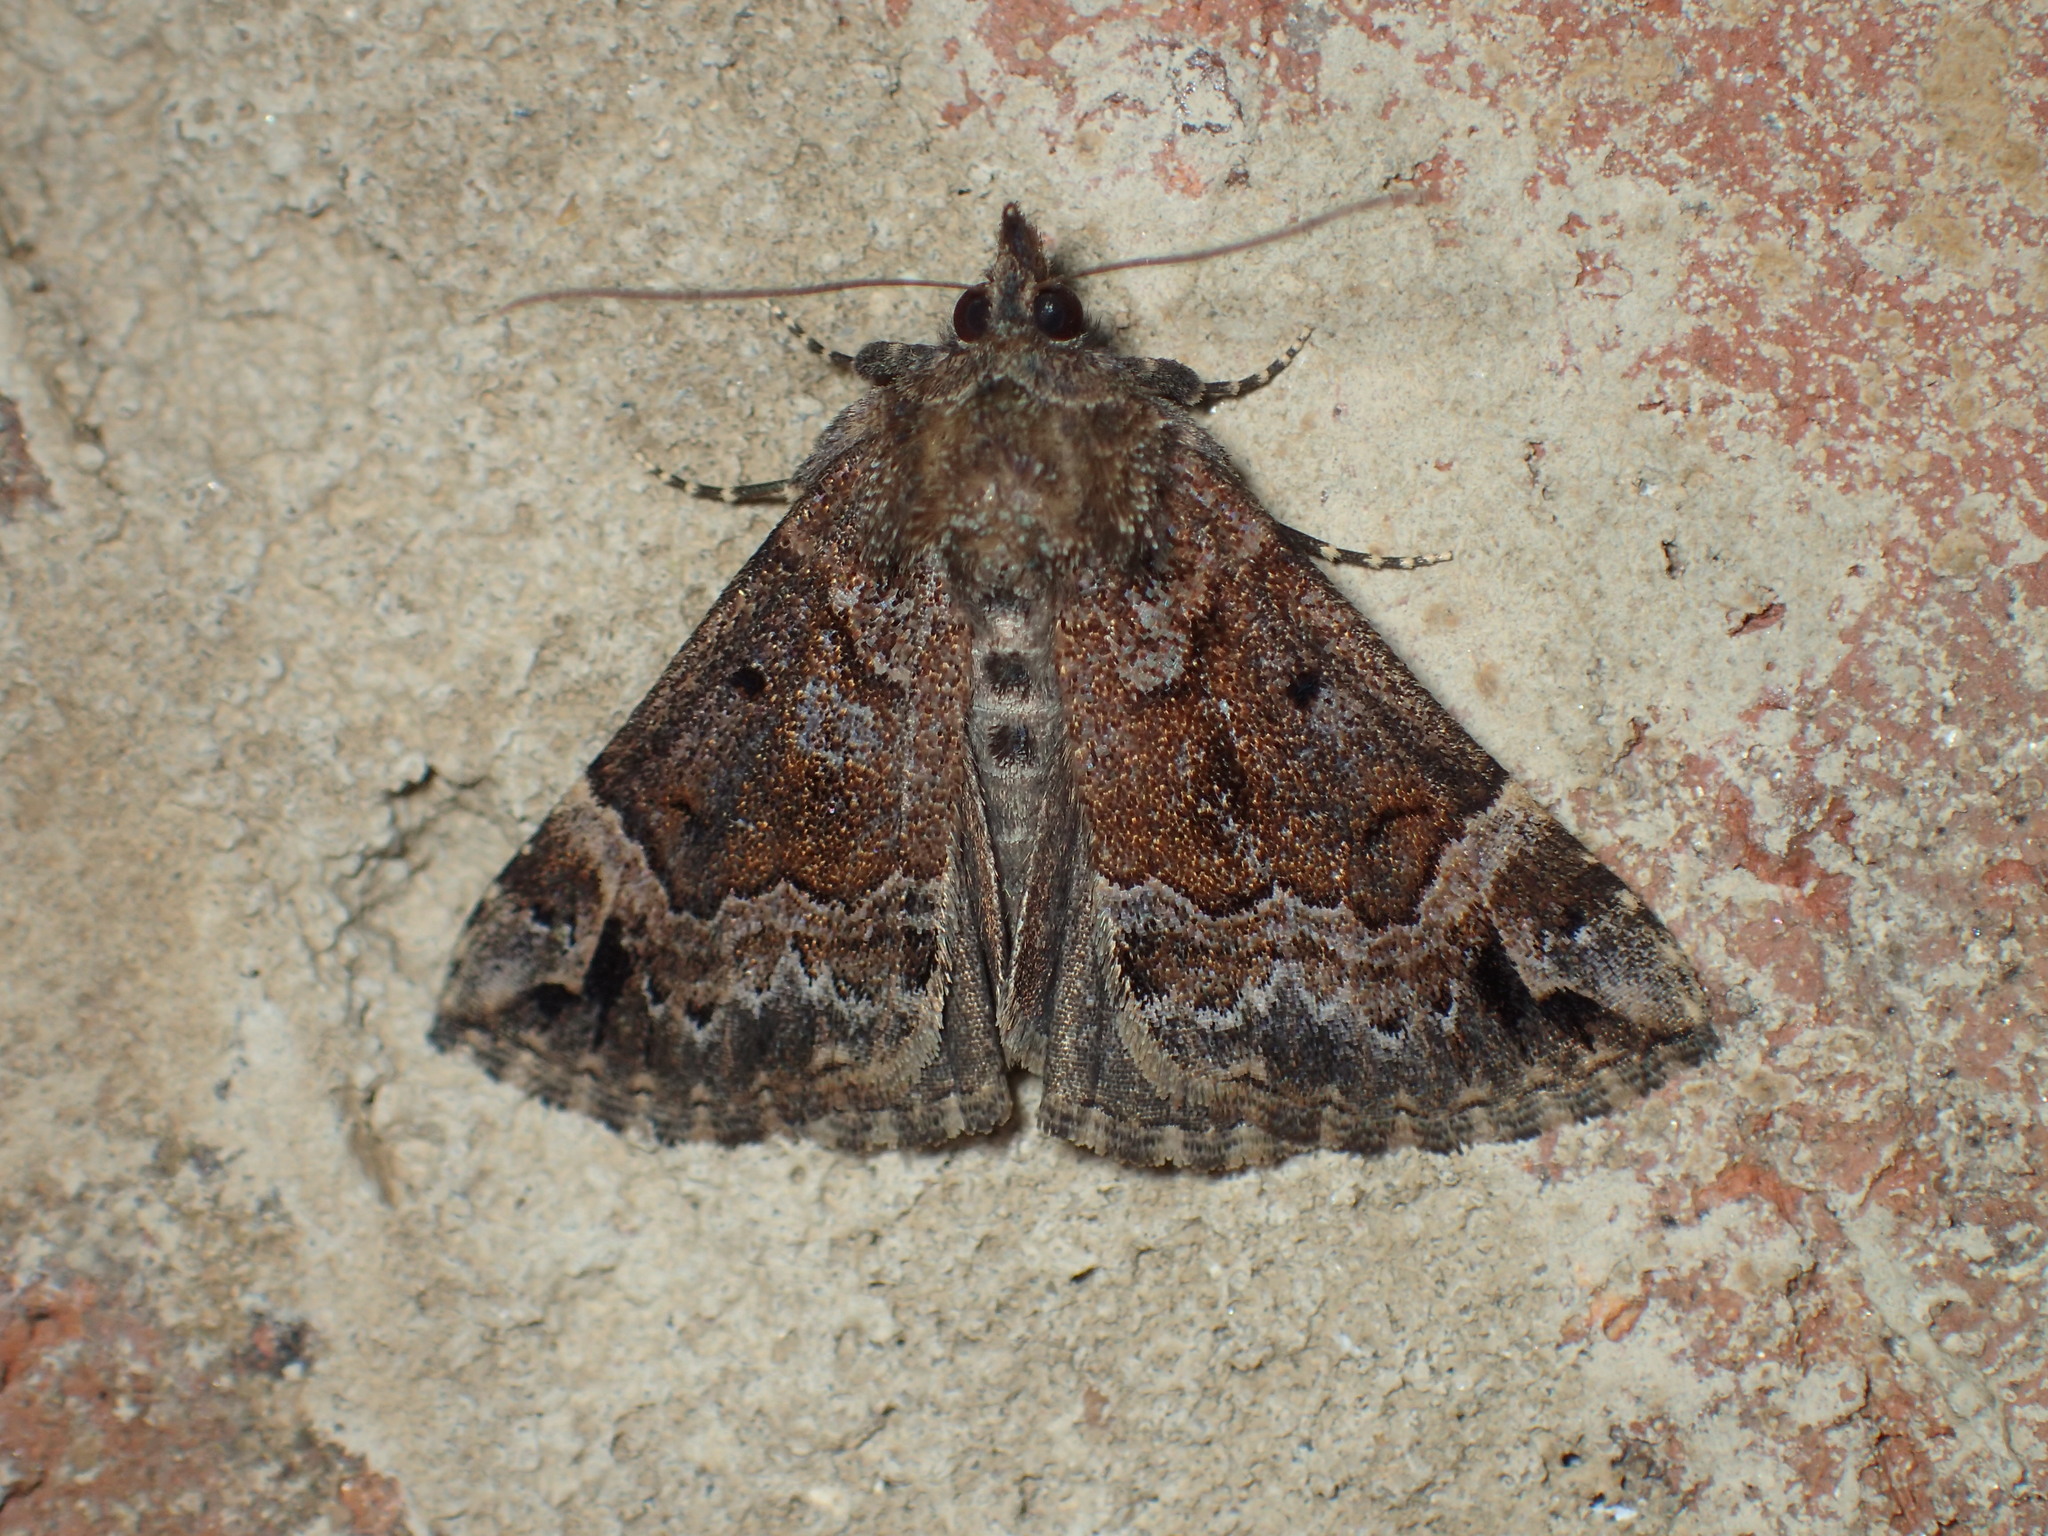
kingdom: Animalia
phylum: Arthropoda
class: Insecta
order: Lepidoptera
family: Erebidae
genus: Hypena
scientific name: Hypena palparia
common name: Mottled bomolocha moth
